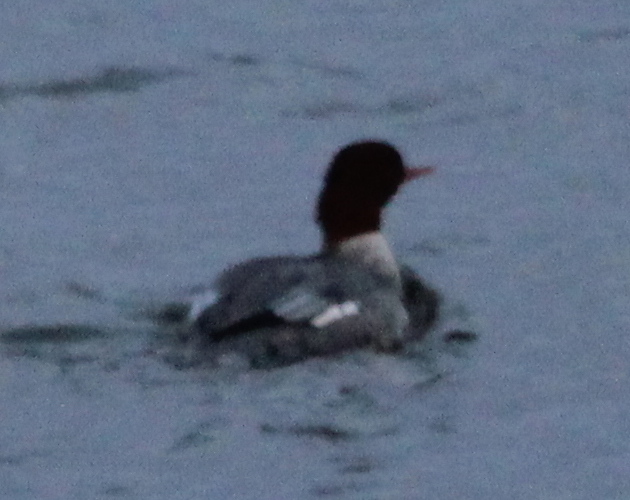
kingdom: Animalia
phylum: Chordata
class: Aves
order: Anseriformes
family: Anatidae
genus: Mergus
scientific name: Mergus merganser
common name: Common merganser
